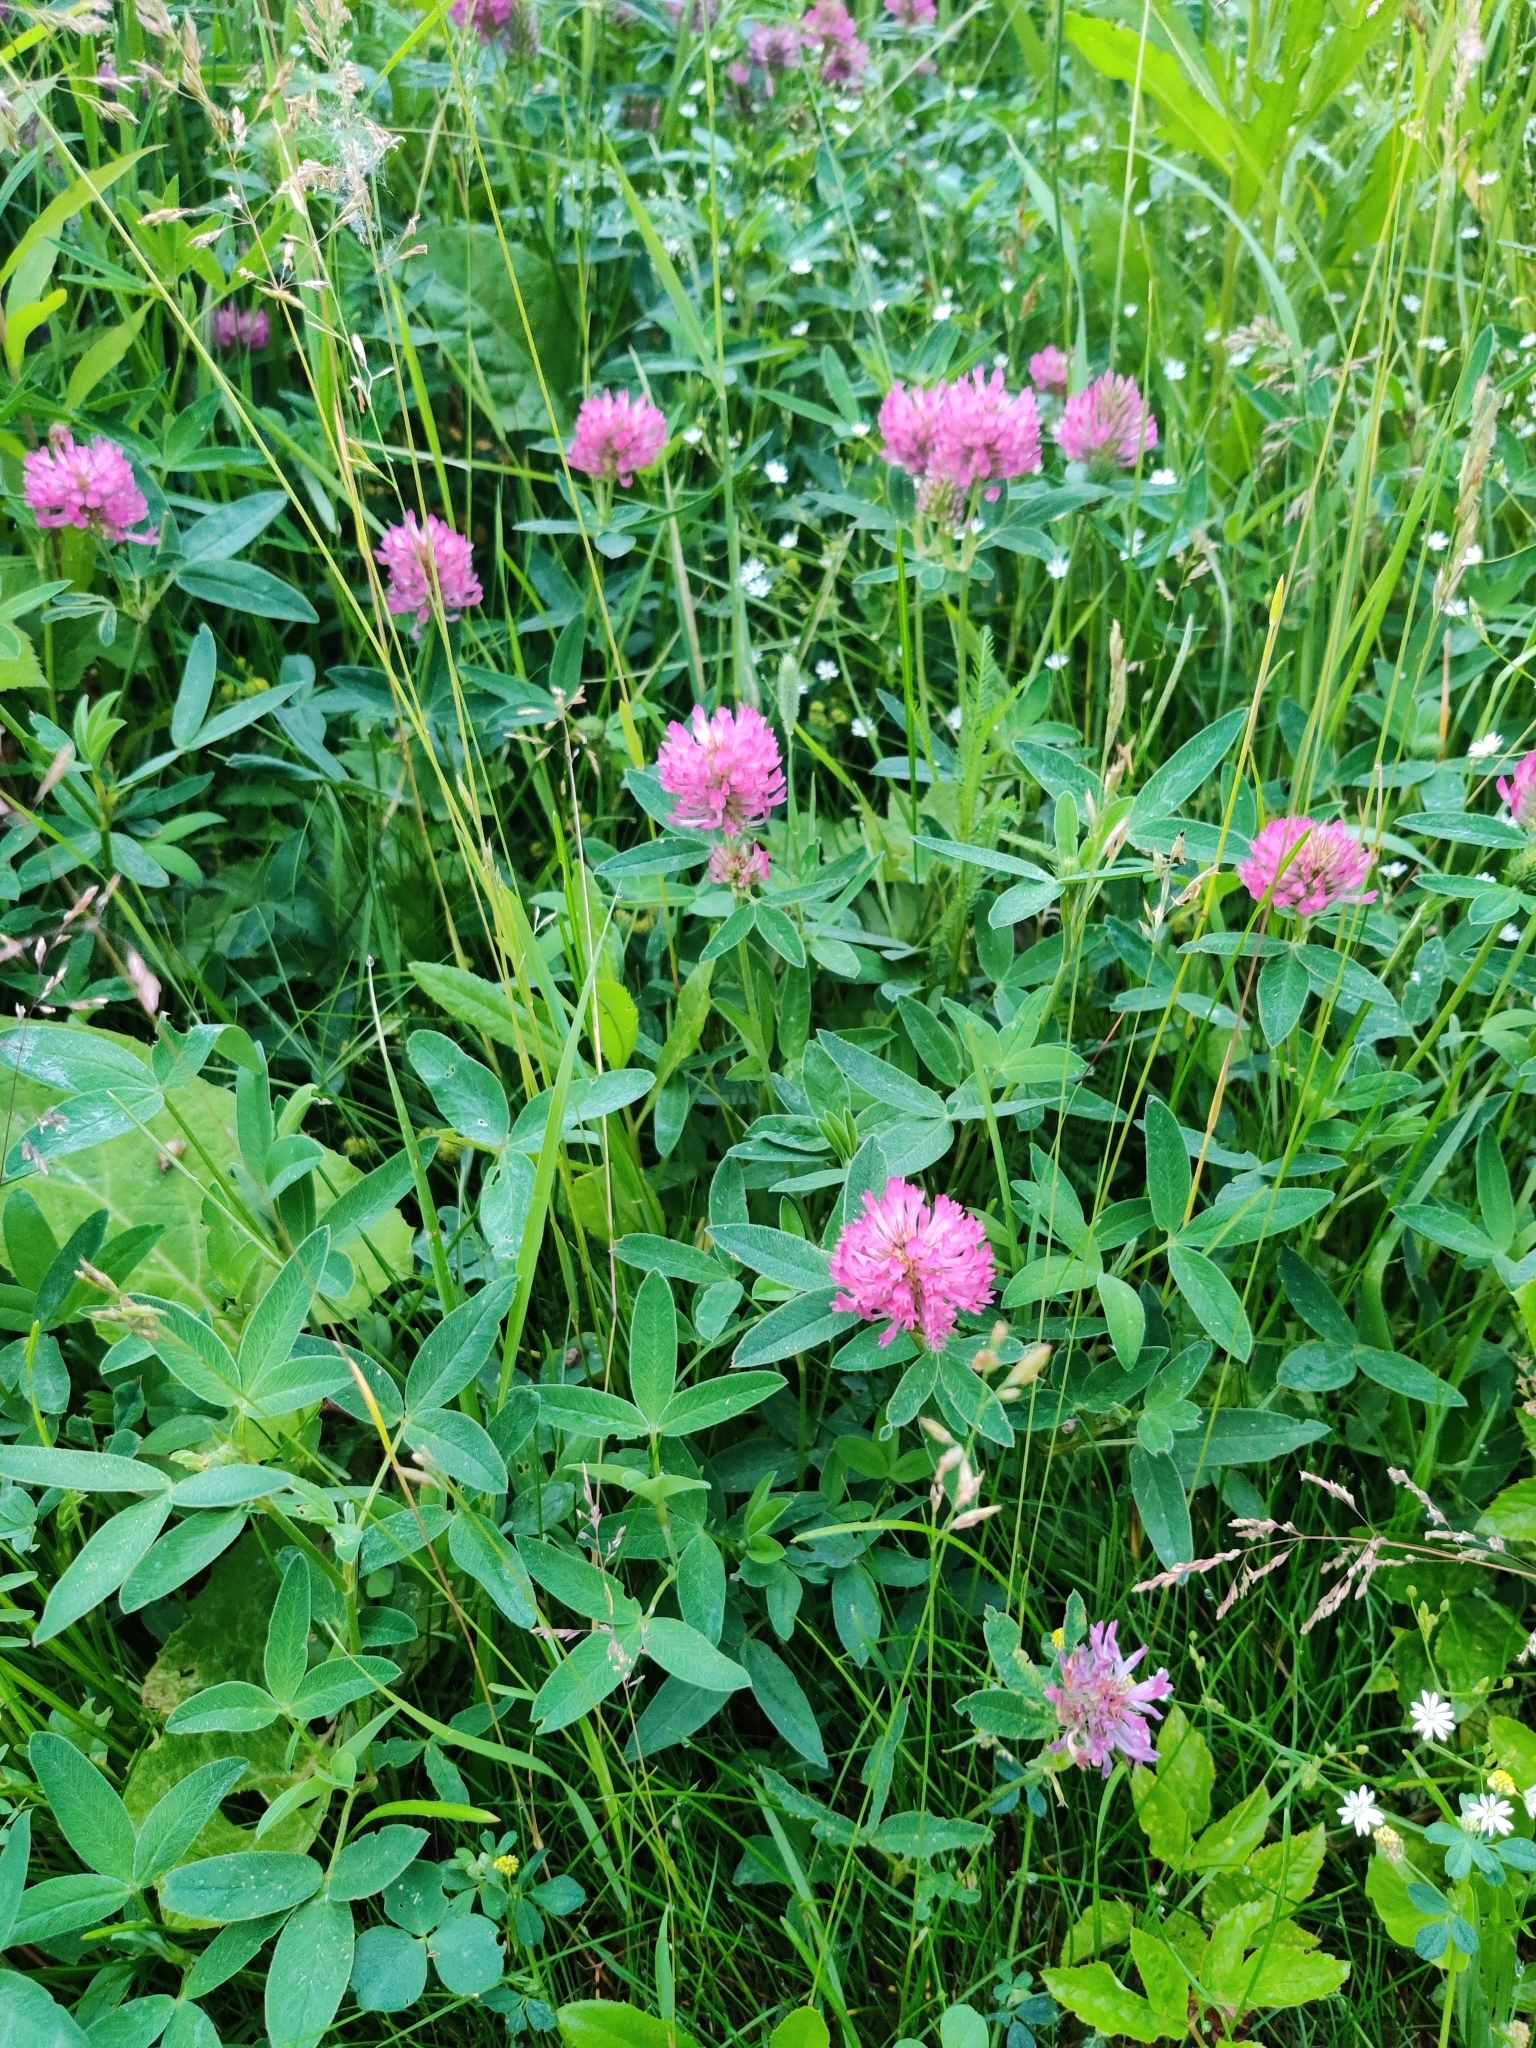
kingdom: Plantae
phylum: Tracheophyta
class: Magnoliopsida
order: Fabales
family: Fabaceae
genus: Trifolium
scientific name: Trifolium medium
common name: Zigzag clover
